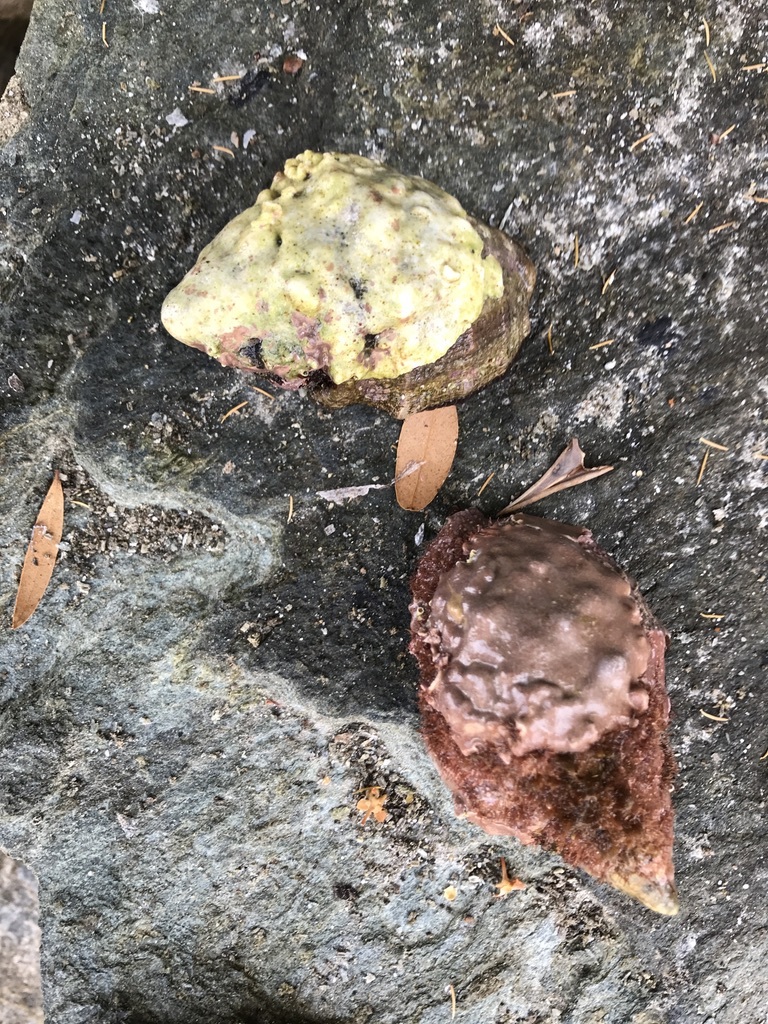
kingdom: Animalia
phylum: Mollusca
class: Gastropoda
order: Neogastropoda
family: Muricidae
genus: Stramonita
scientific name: Stramonita haemastoma
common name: Florida dog winkle
